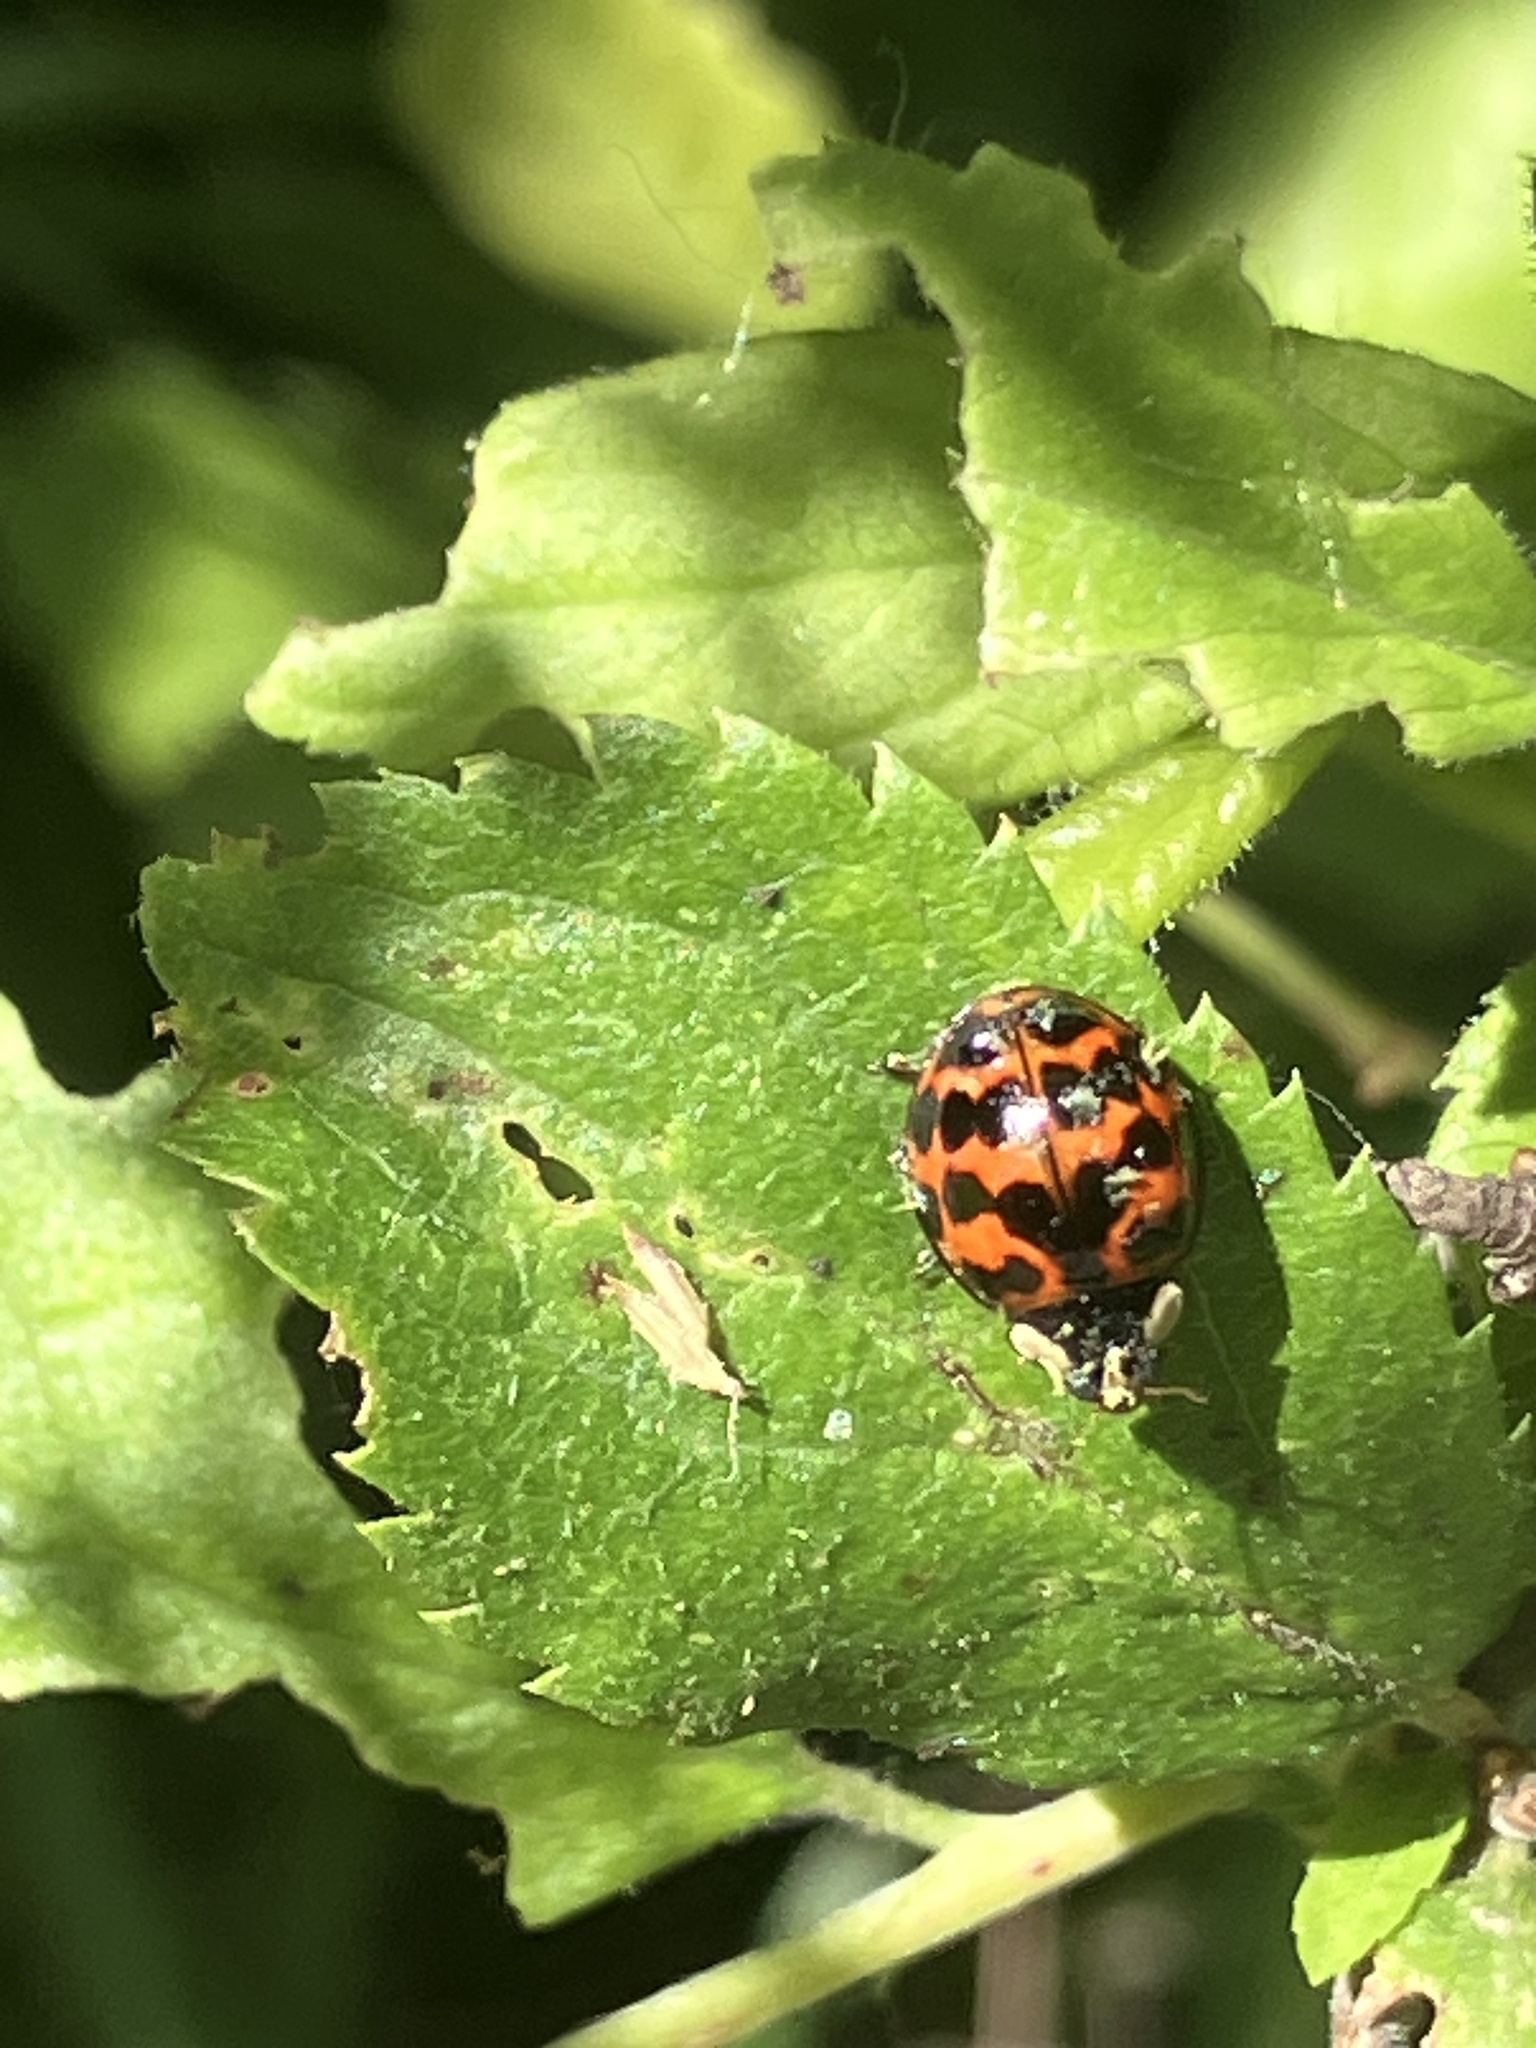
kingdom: Animalia
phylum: Arthropoda
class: Insecta
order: Coleoptera
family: Coccinellidae
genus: Harmonia
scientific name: Harmonia axyridis
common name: Harlequin ladybird
